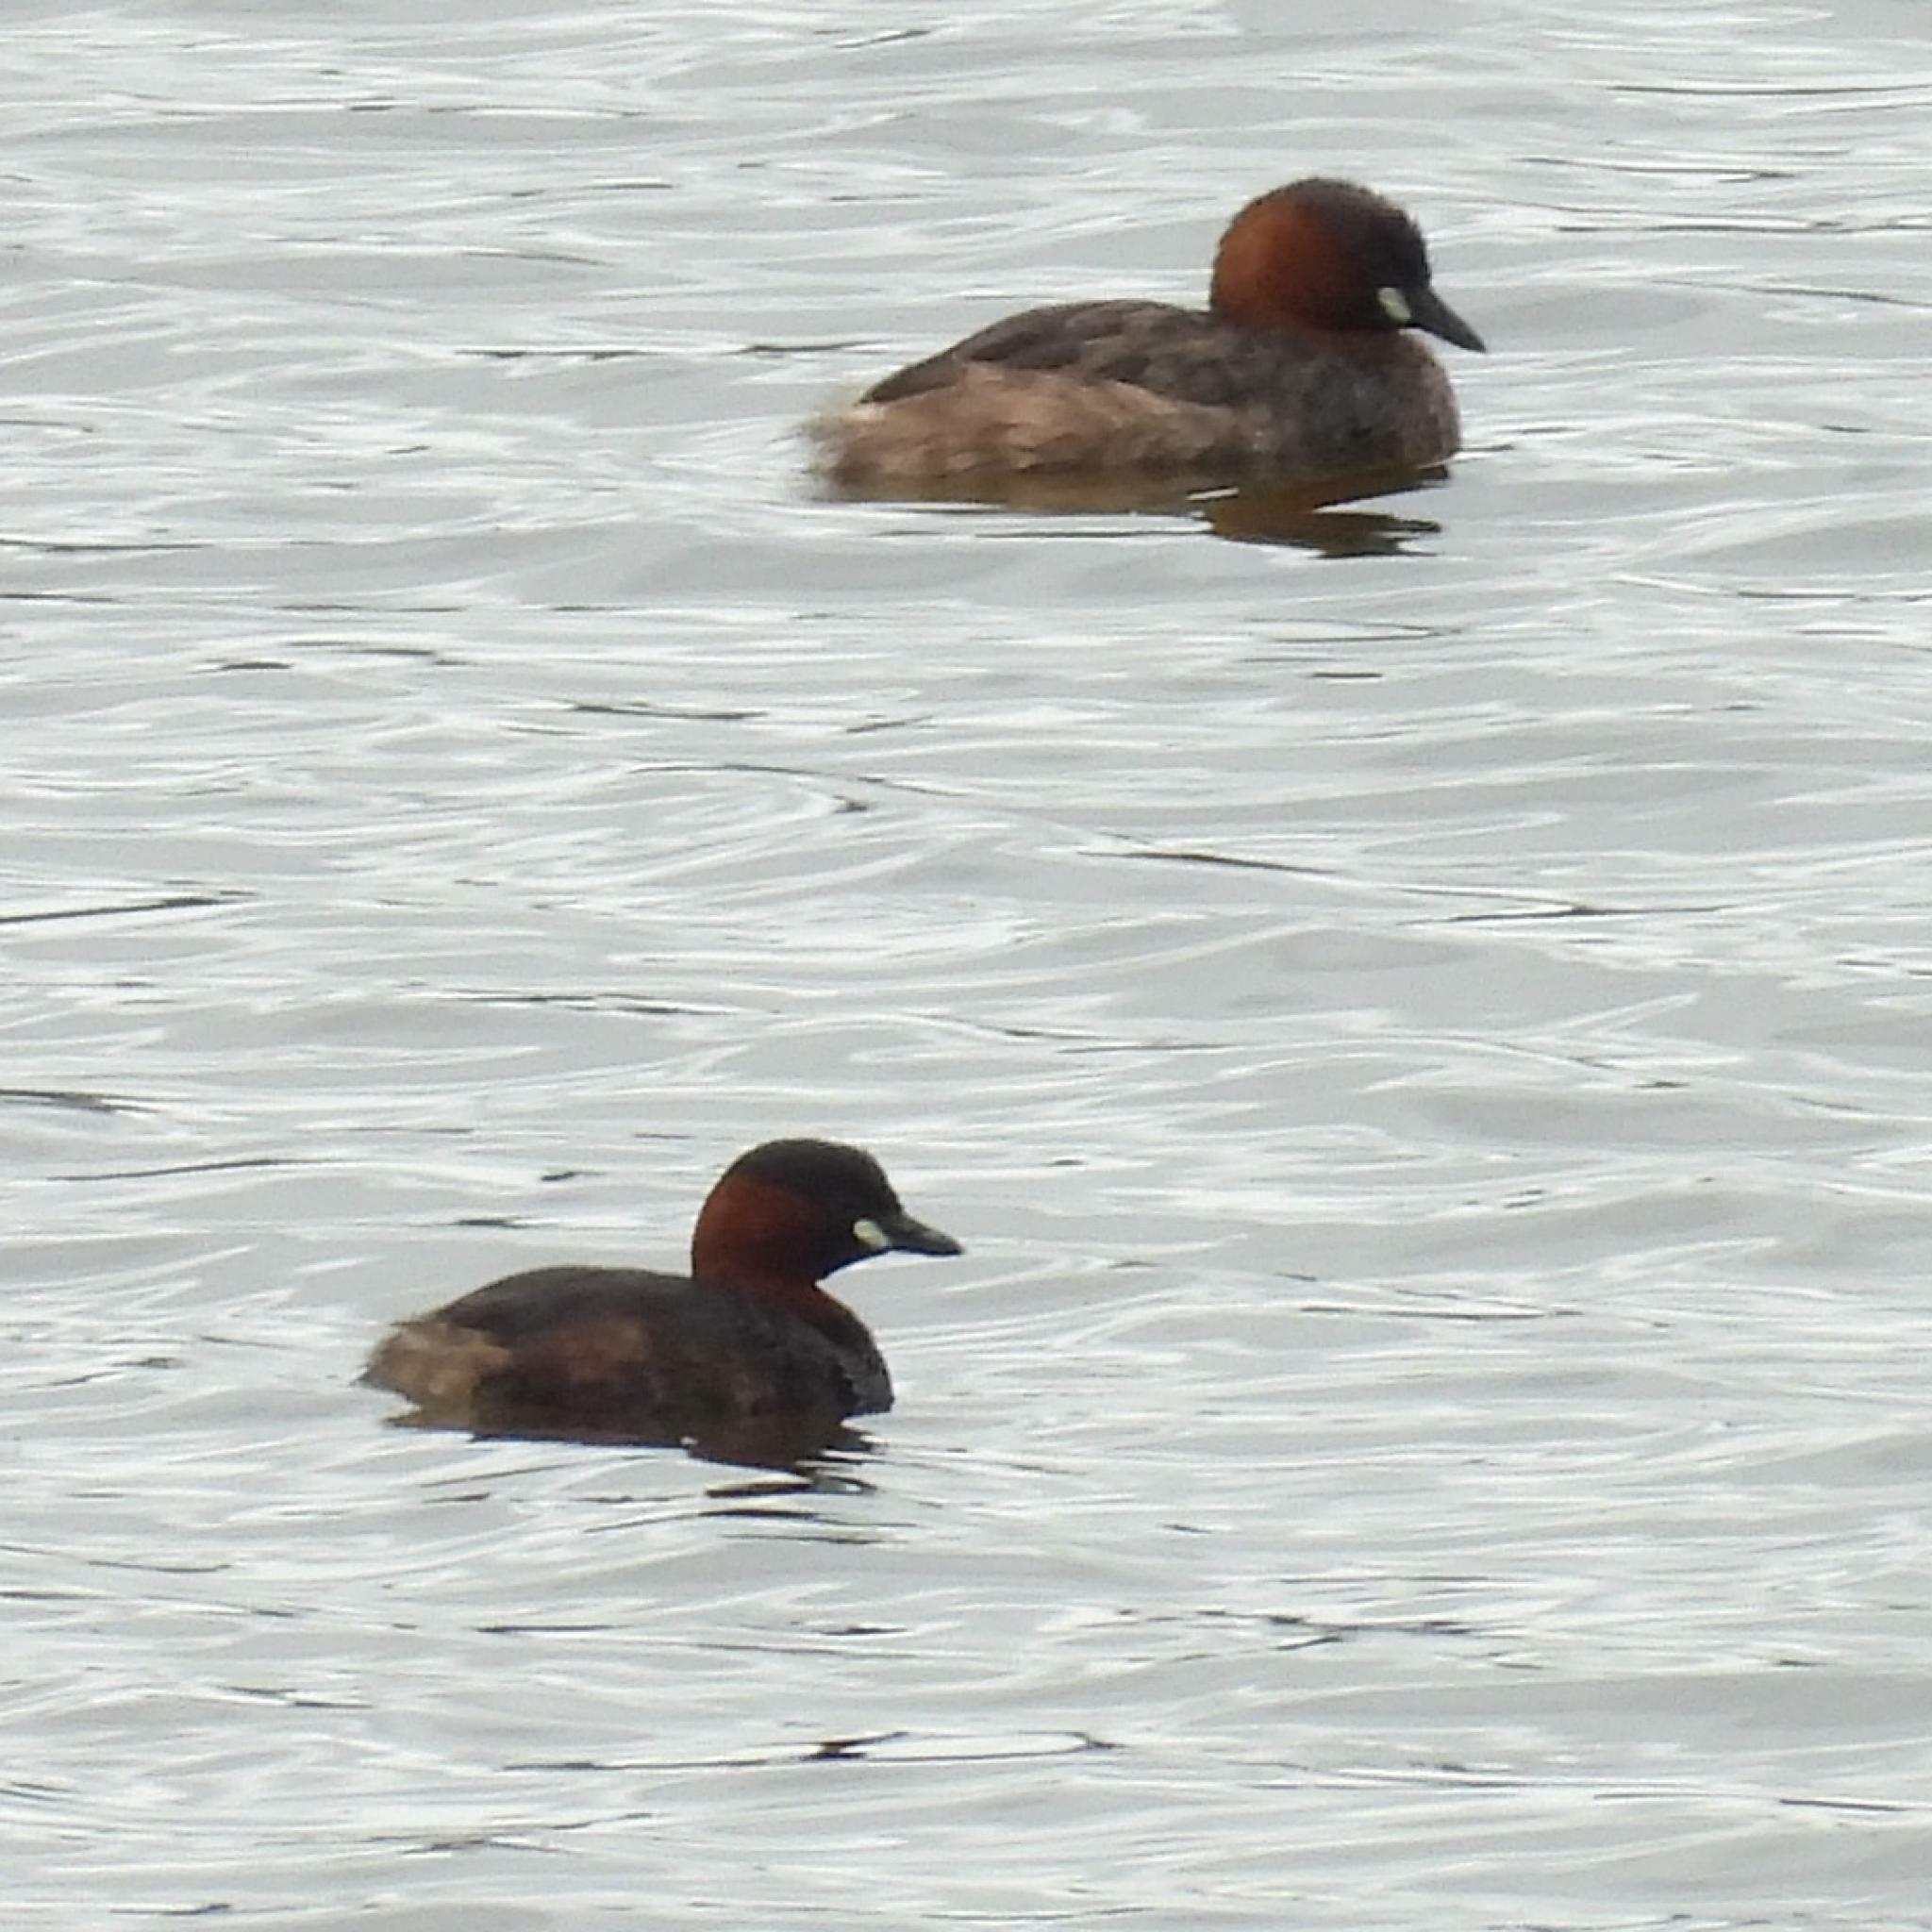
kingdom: Animalia
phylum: Chordata
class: Aves
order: Podicipediformes
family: Podicipedidae
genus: Tachybaptus
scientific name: Tachybaptus ruficollis
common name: Little grebe
